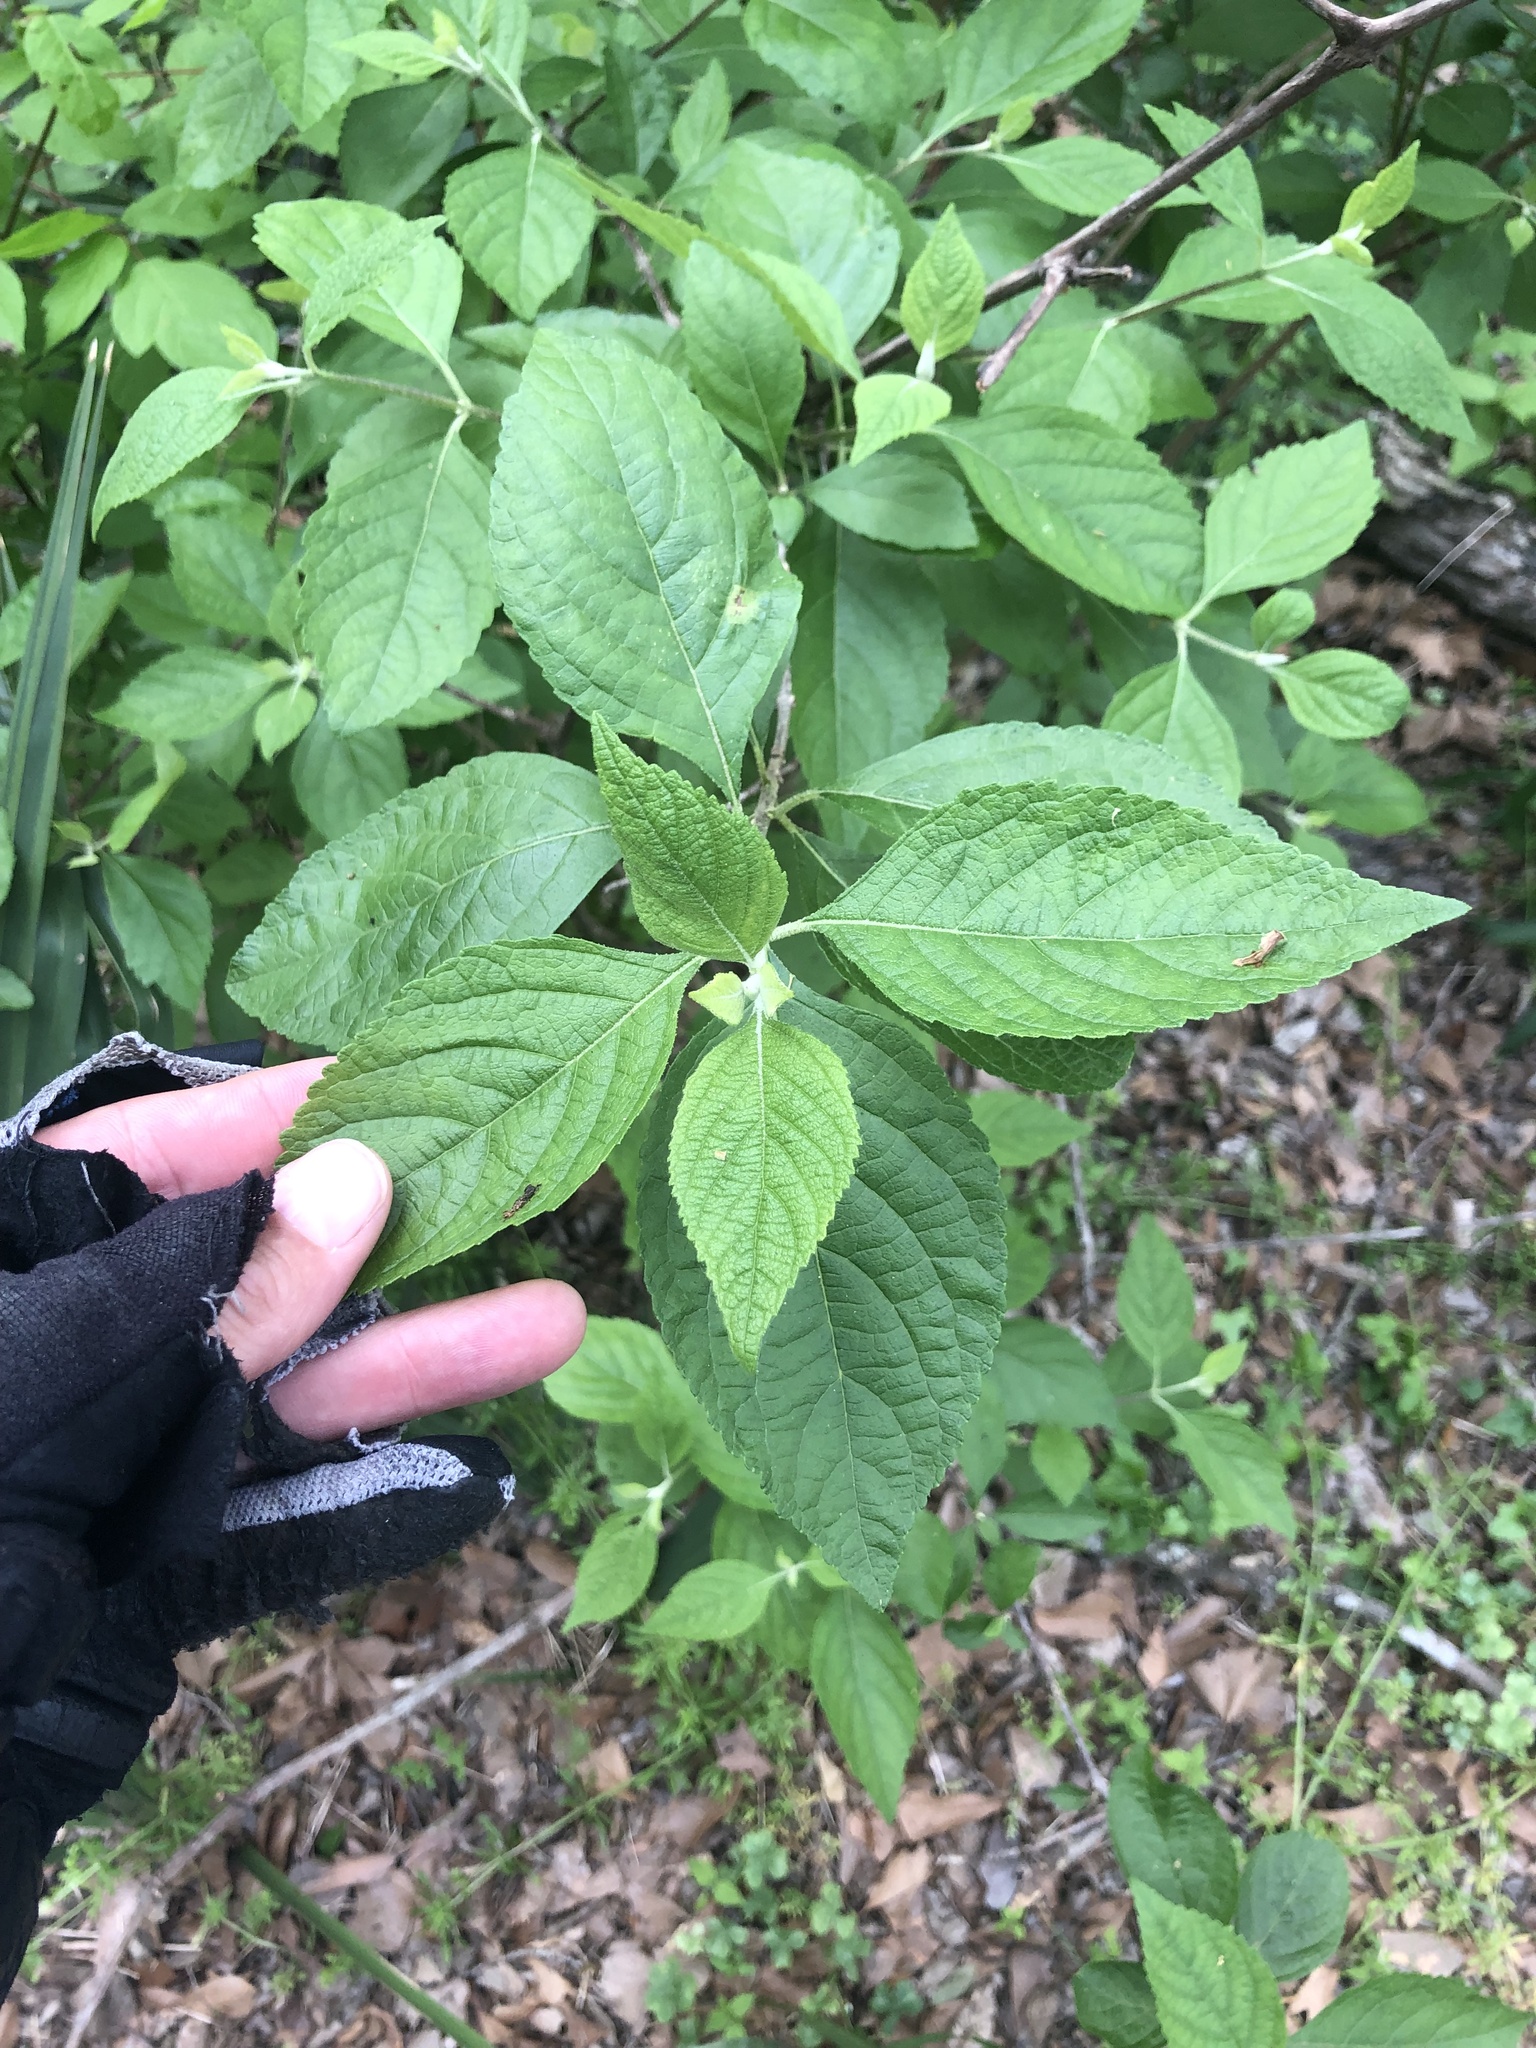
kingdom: Plantae
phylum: Tracheophyta
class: Magnoliopsida
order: Lamiales
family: Lamiaceae
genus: Callicarpa
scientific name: Callicarpa americana
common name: American beautyberry
